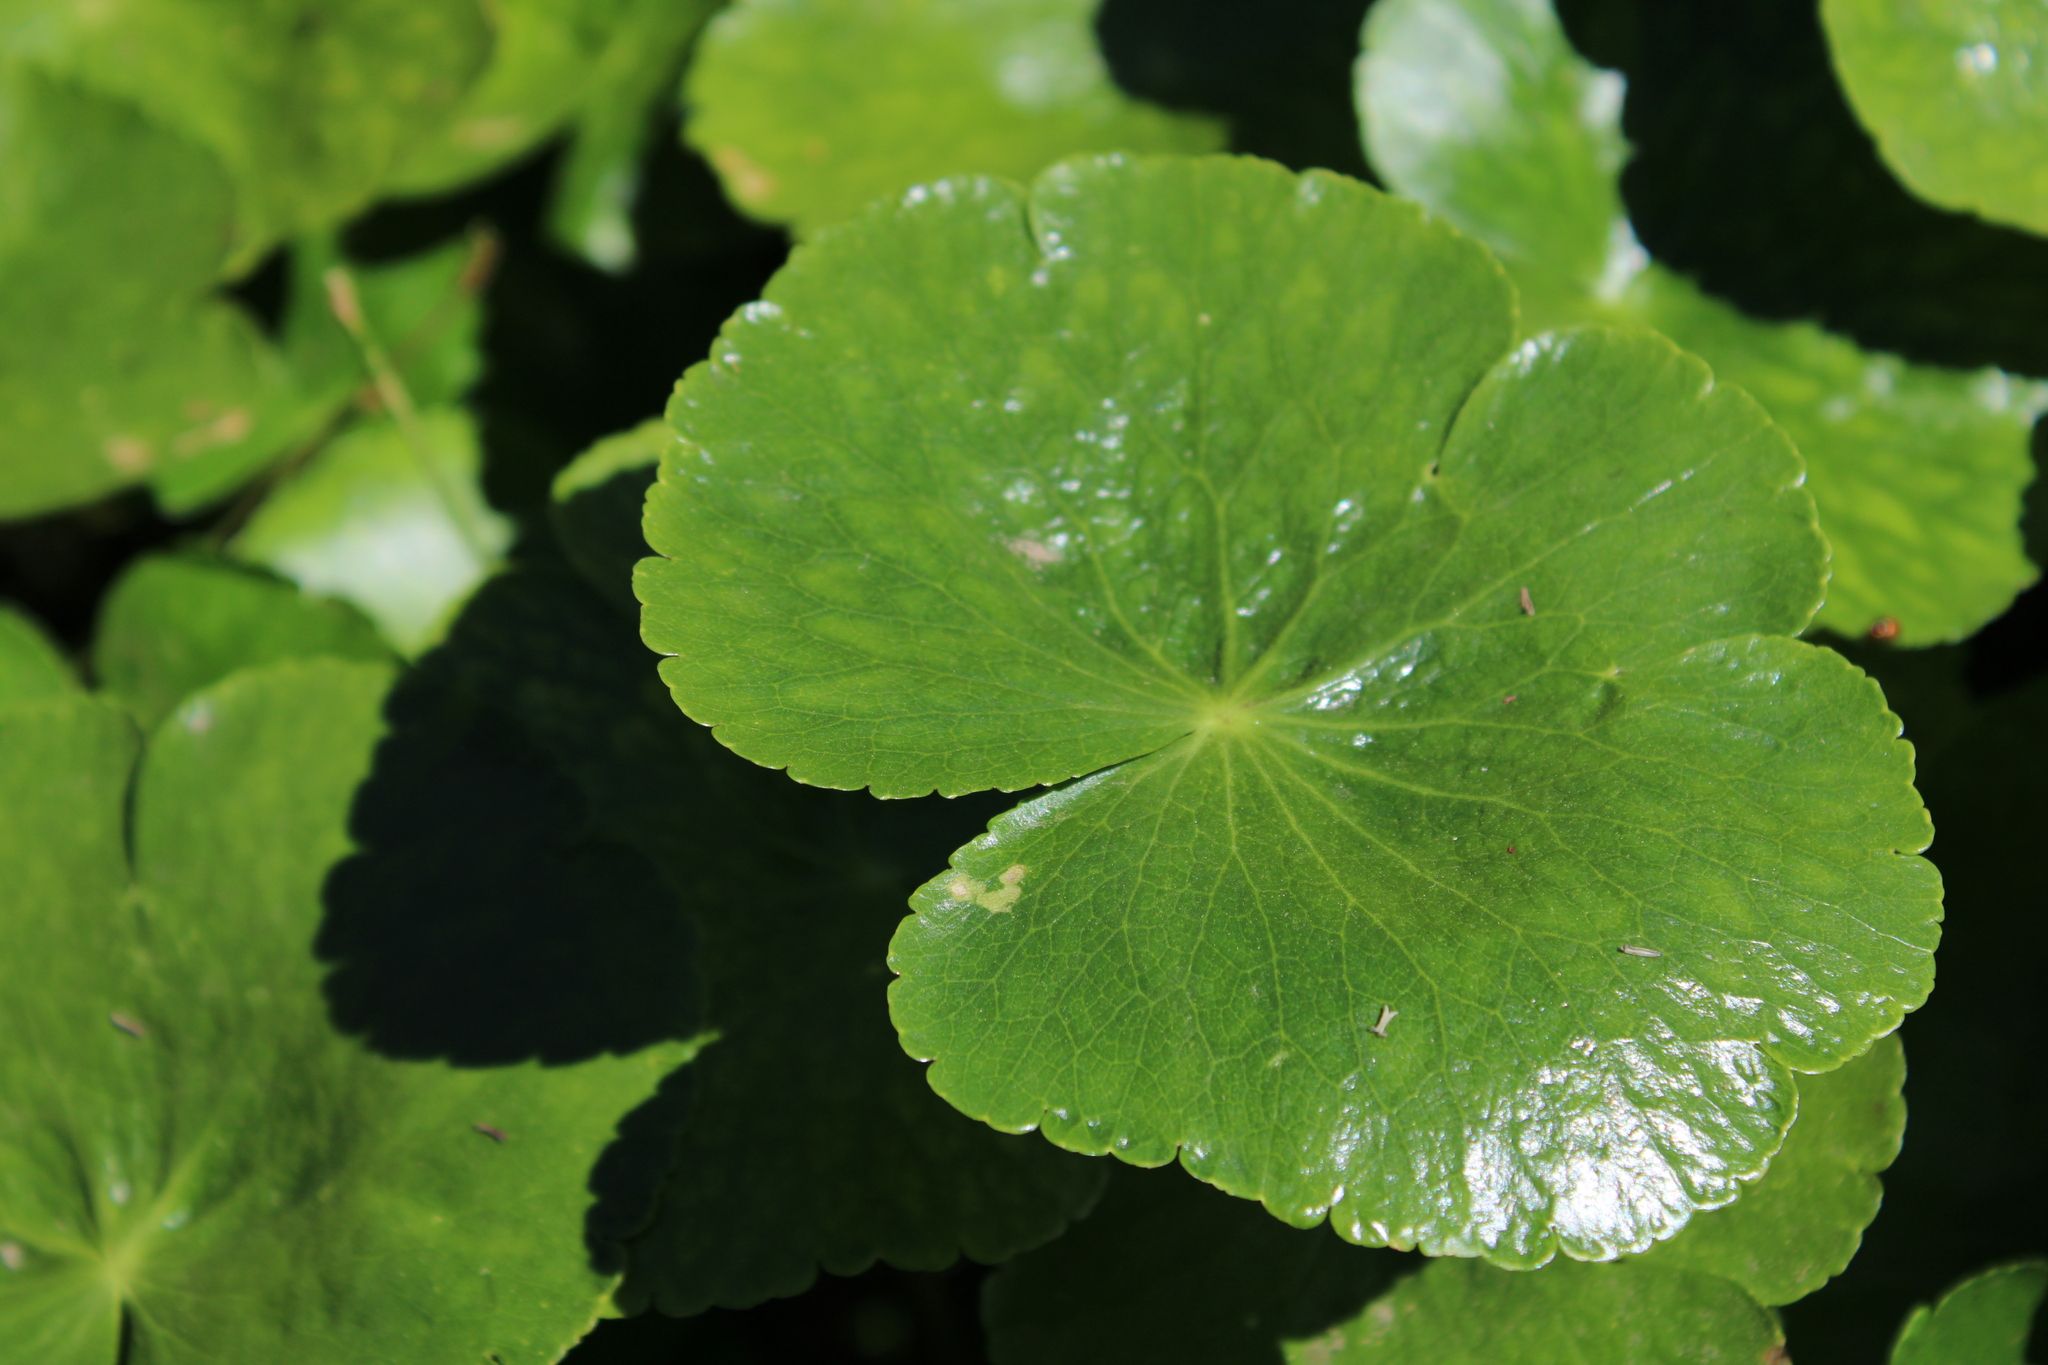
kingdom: Plantae
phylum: Tracheophyta
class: Magnoliopsida
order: Apiales
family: Araliaceae
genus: Hydrocotyle
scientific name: Hydrocotyle ranunculoides
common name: Floating pennywort
